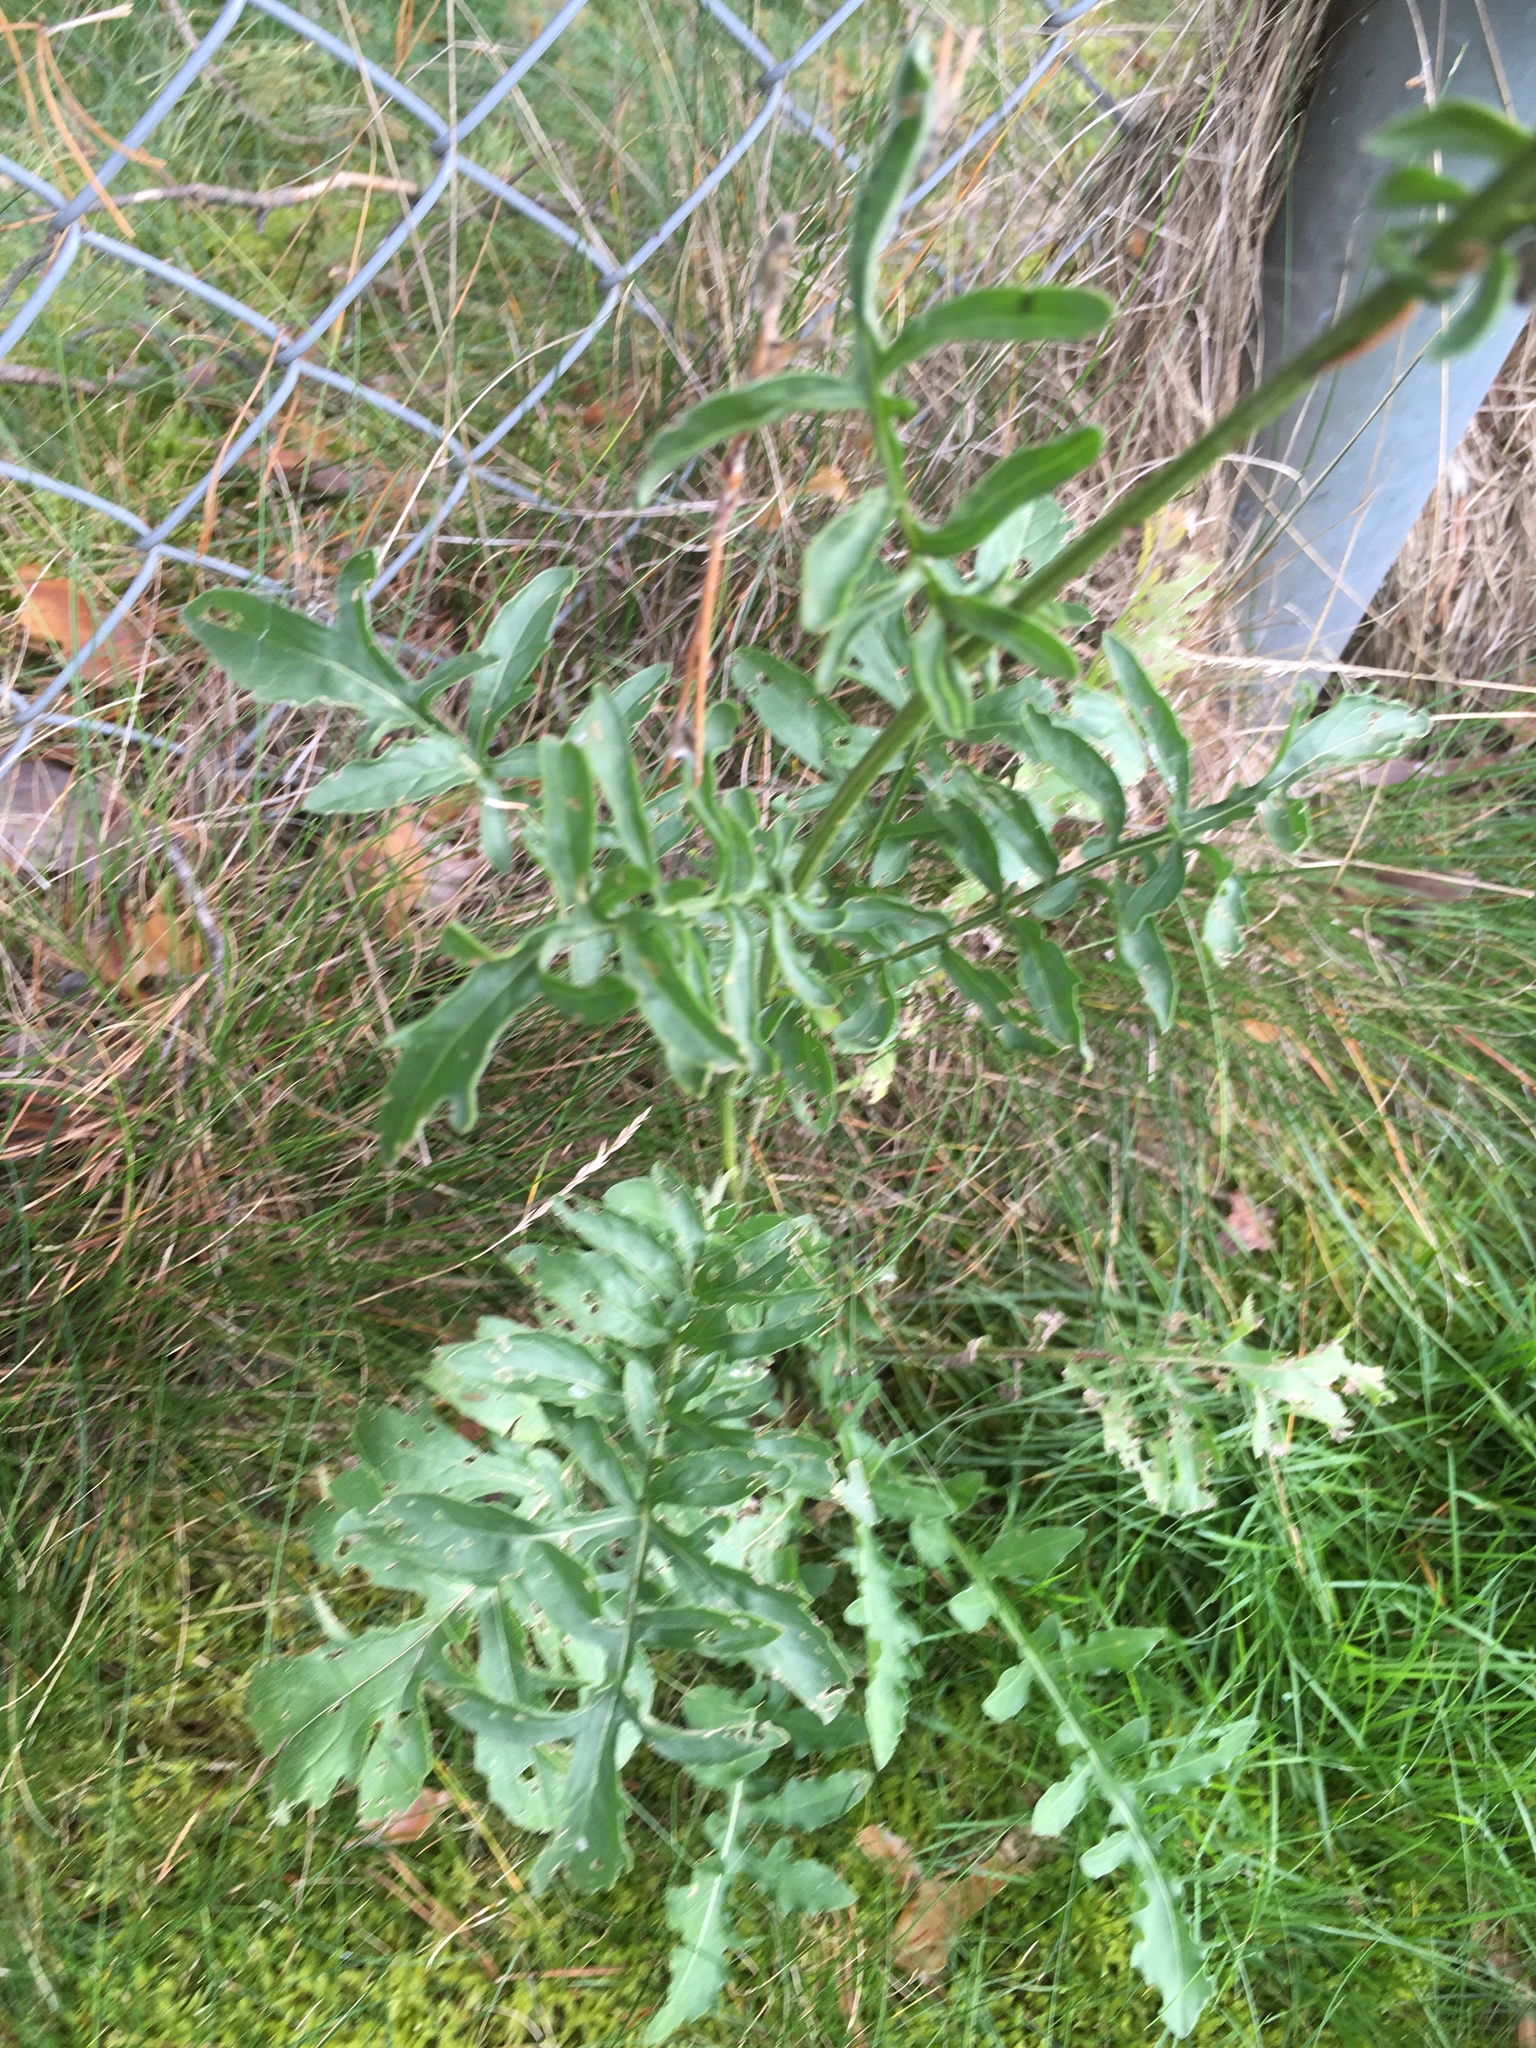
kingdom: Plantae
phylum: Tracheophyta
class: Magnoliopsida
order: Asterales
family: Asteraceae
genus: Centaurea
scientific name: Centaurea scabiosa
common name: Greater knapweed
